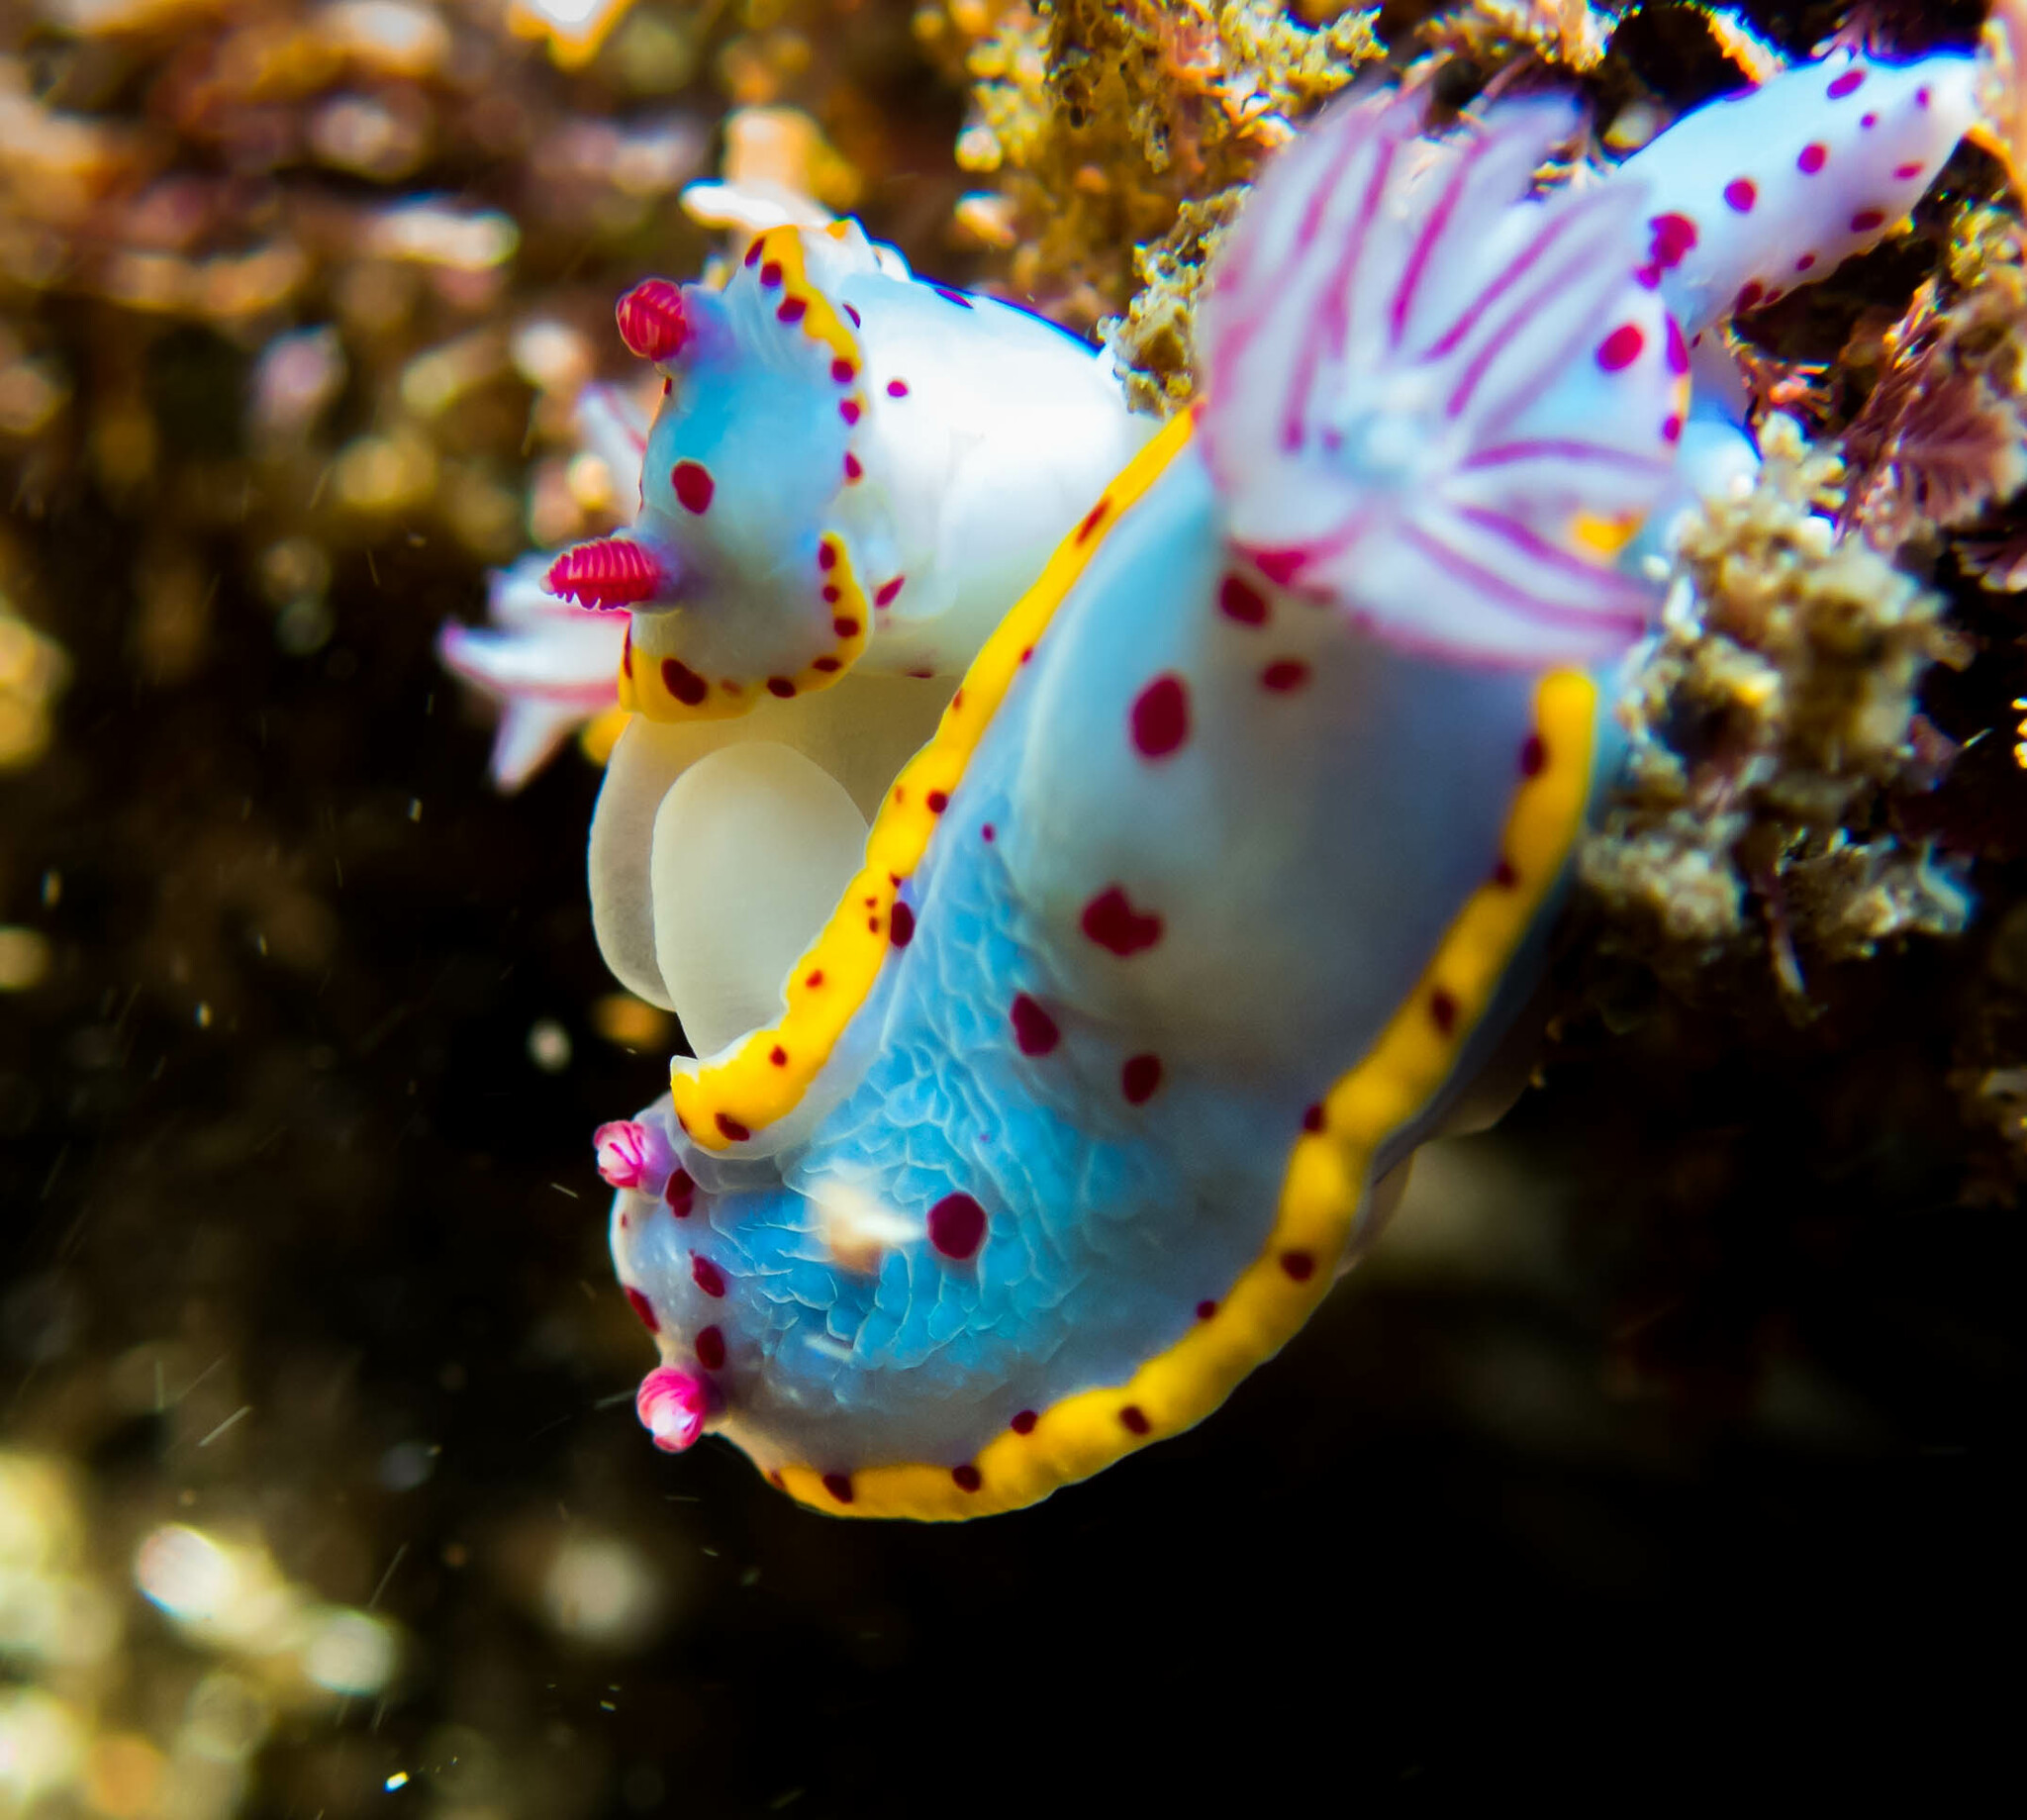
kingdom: Animalia
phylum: Mollusca
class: Gastropoda
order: Nudibranchia
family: Chromodorididae
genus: Hypselodoris
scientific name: Hypselodoris bennetti
